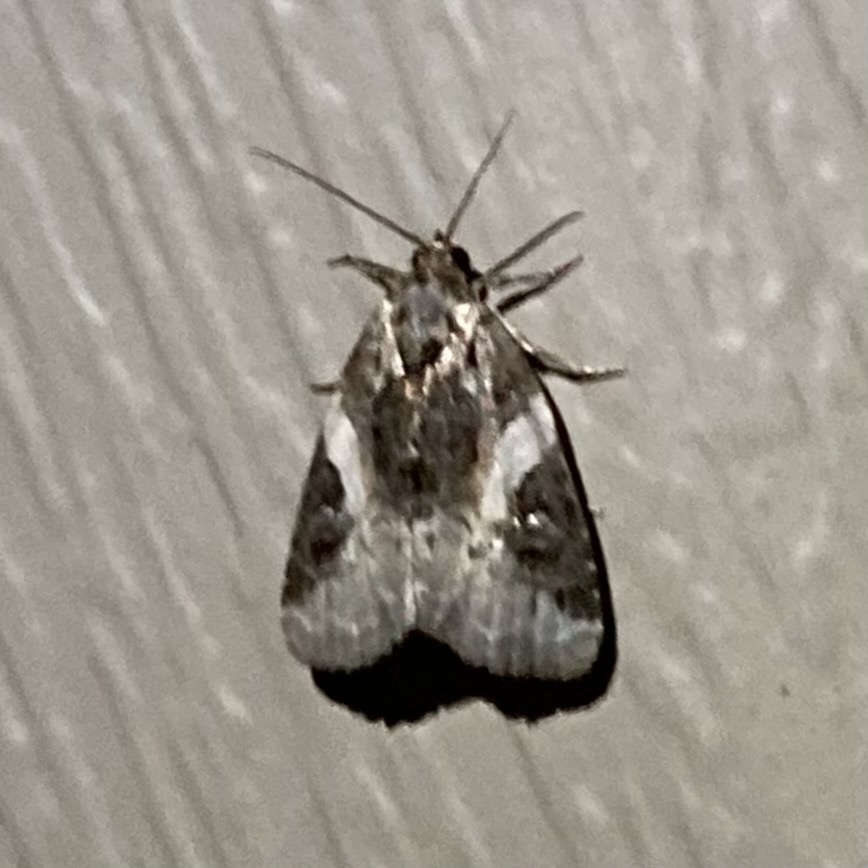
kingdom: Animalia
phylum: Arthropoda
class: Insecta
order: Lepidoptera
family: Noctuidae
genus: Pseudeustrotia
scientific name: Pseudeustrotia carneola
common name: Pink-barred lithacodia moth
